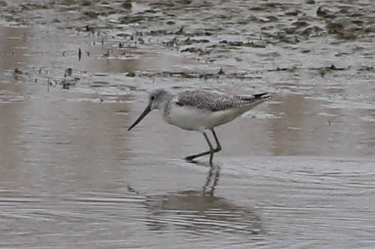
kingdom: Animalia
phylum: Chordata
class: Aves
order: Charadriiformes
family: Scolopacidae
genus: Tringa
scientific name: Tringa nebularia
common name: Common greenshank
